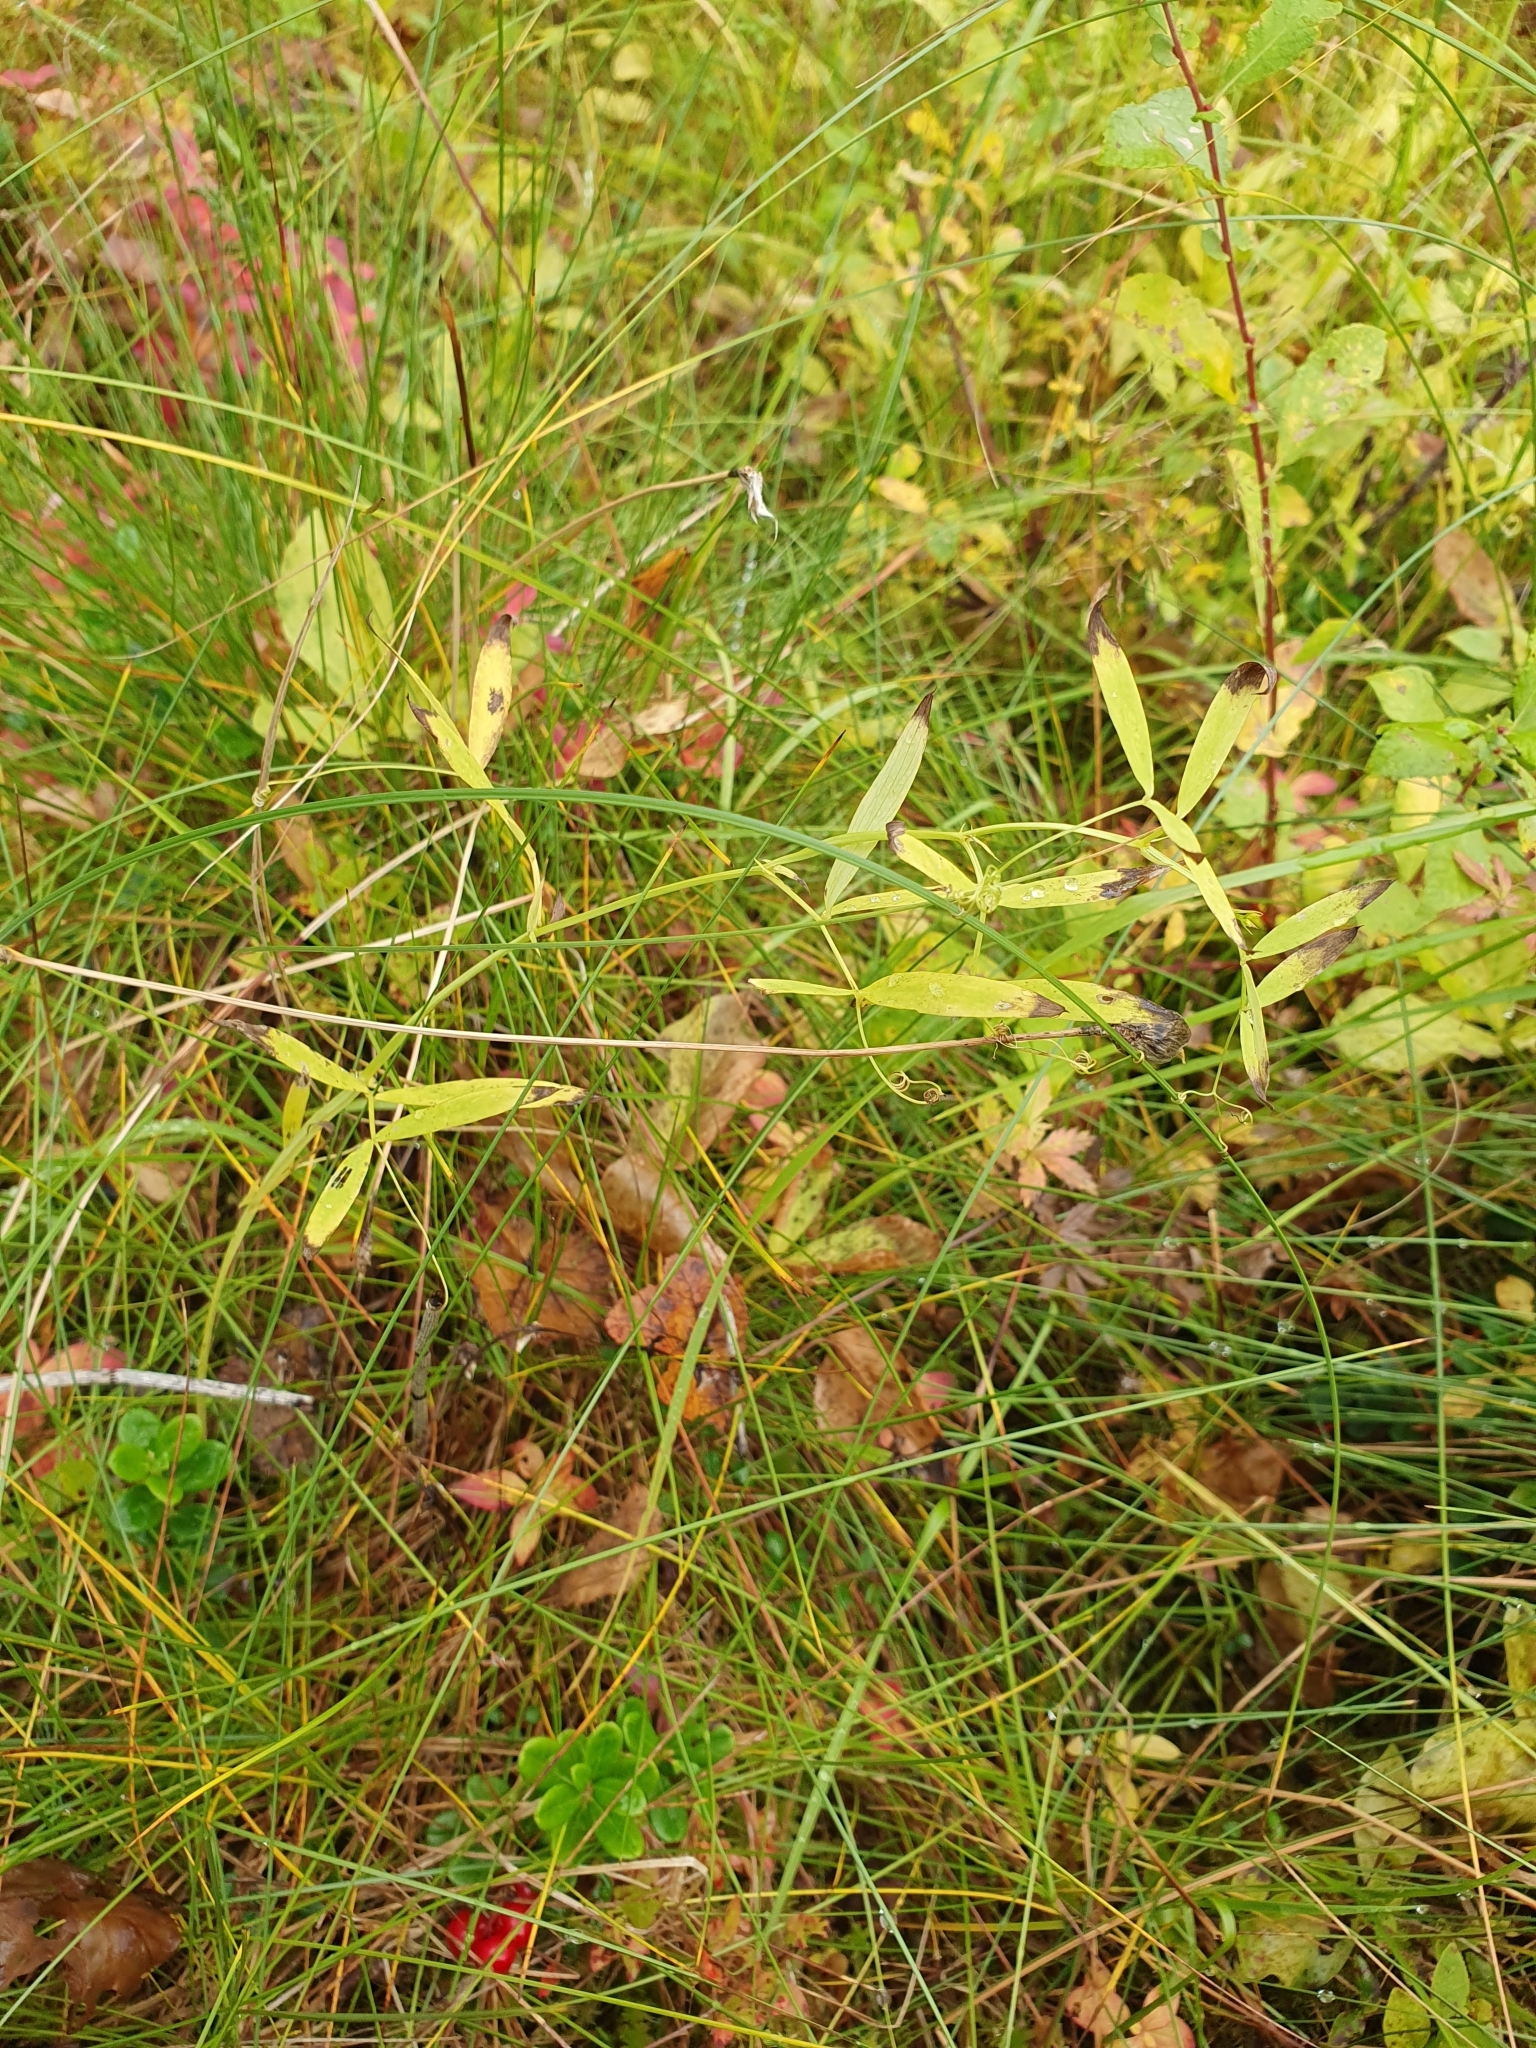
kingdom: Plantae
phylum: Tracheophyta
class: Magnoliopsida
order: Fabales
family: Fabaceae
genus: Lathyrus
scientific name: Lathyrus palustris
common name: Marsh pea
